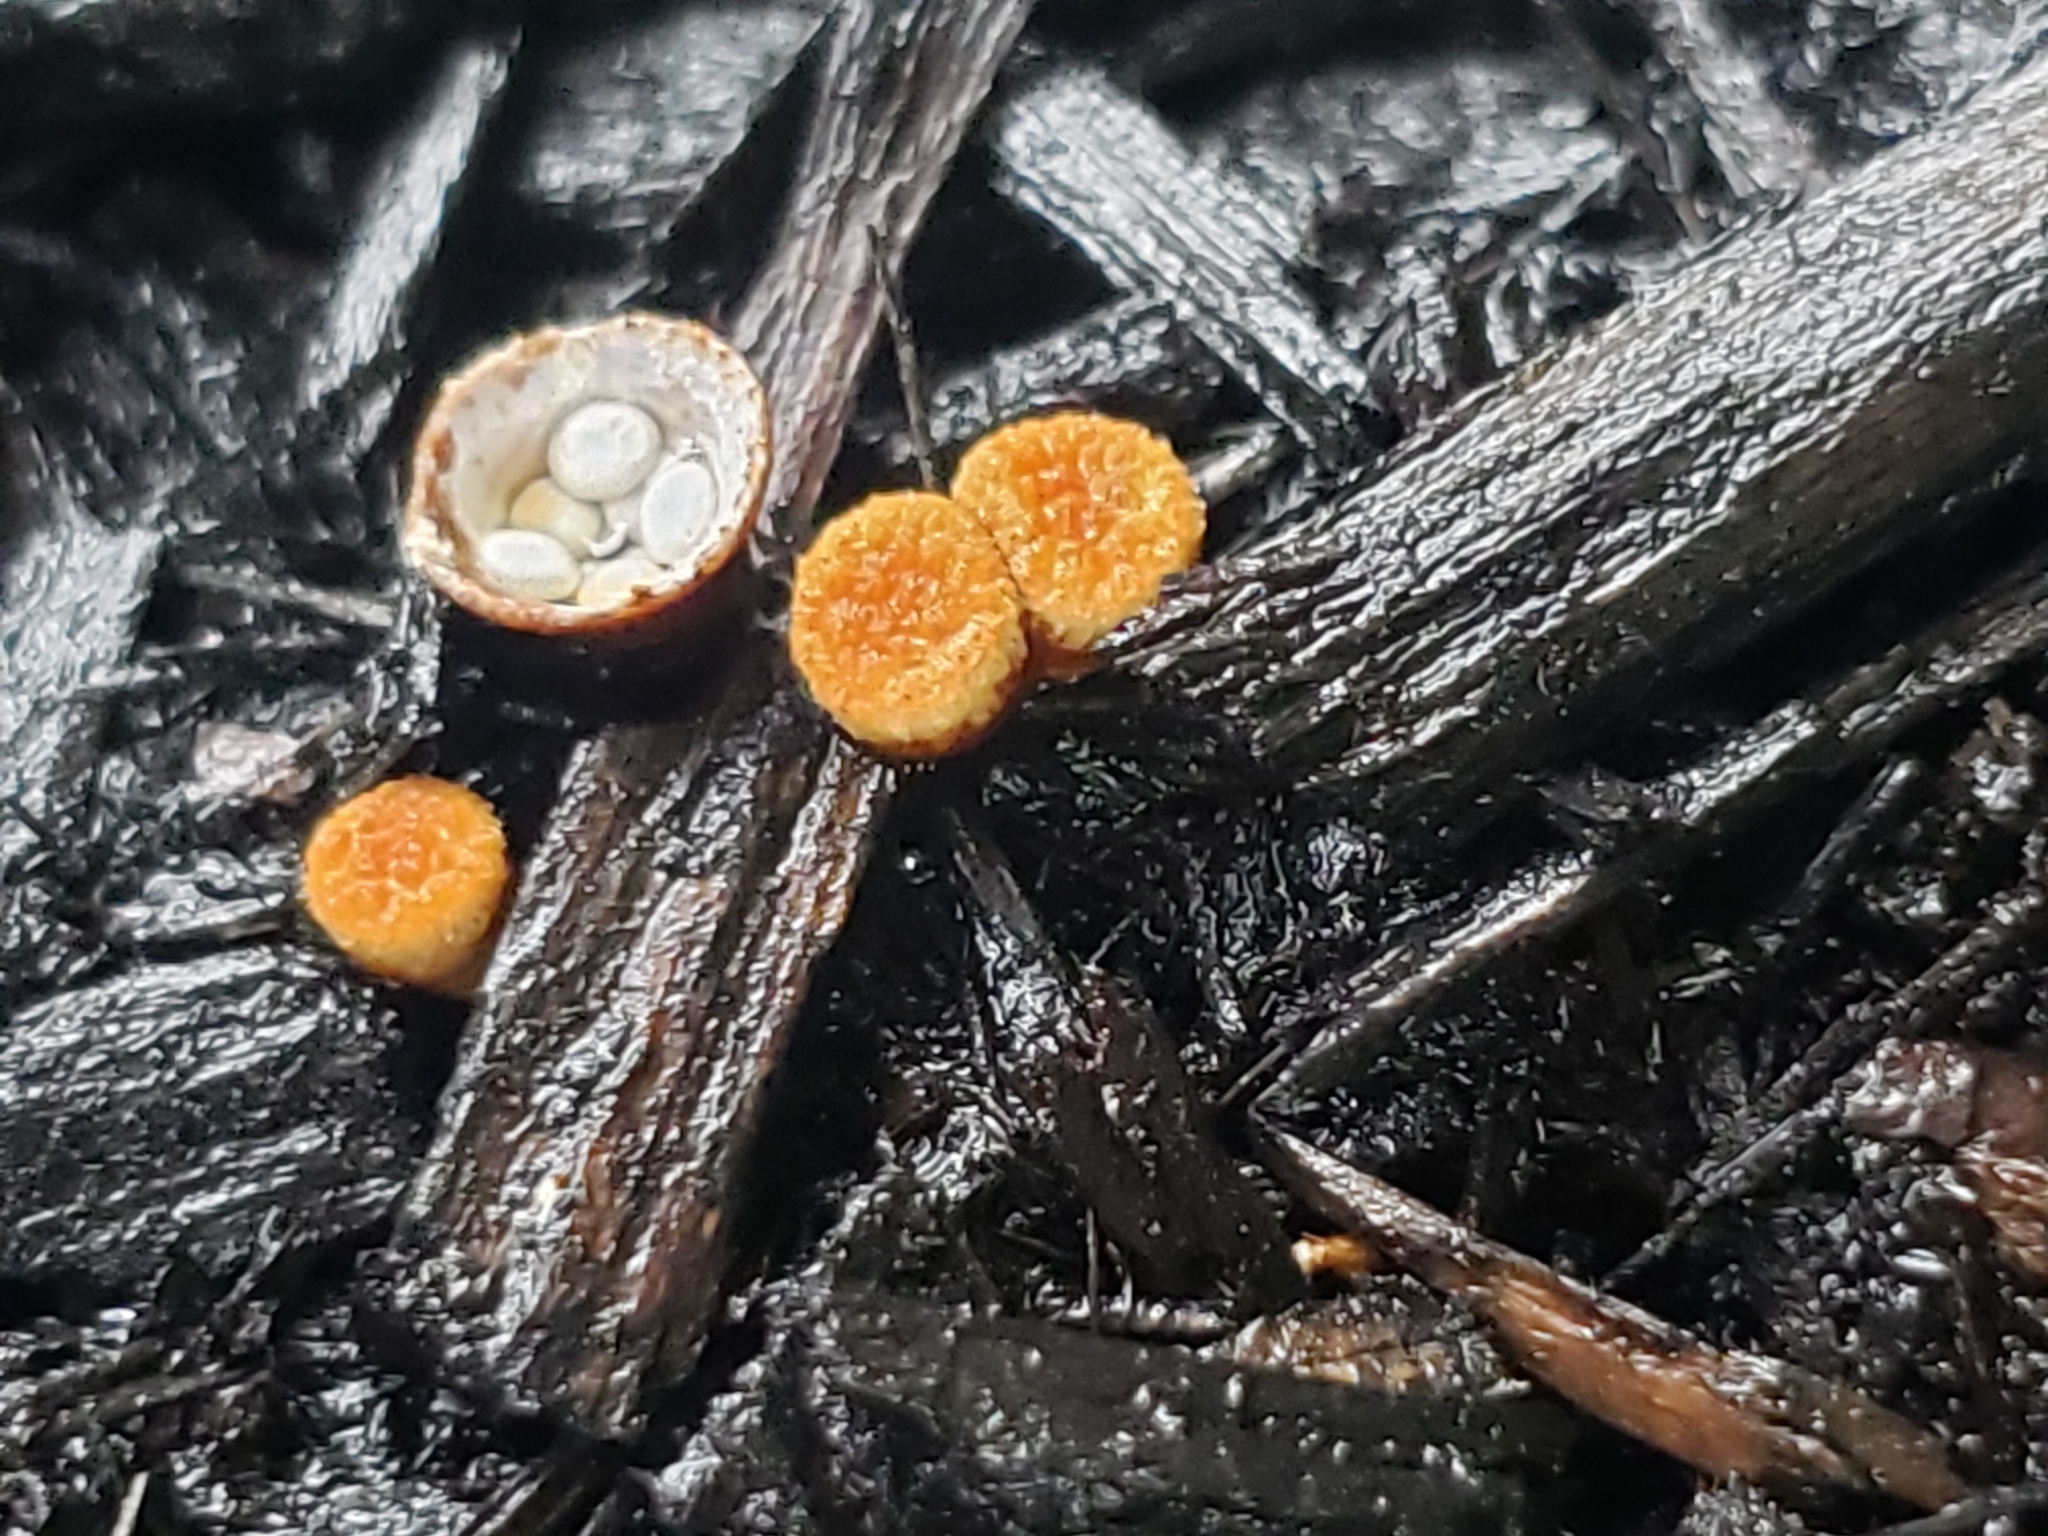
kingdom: Fungi
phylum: Basidiomycota
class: Agaricomycetes
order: Agaricales
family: Nidulariaceae
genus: Crucibulum
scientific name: Crucibulum laeve
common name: Common bird's nest
